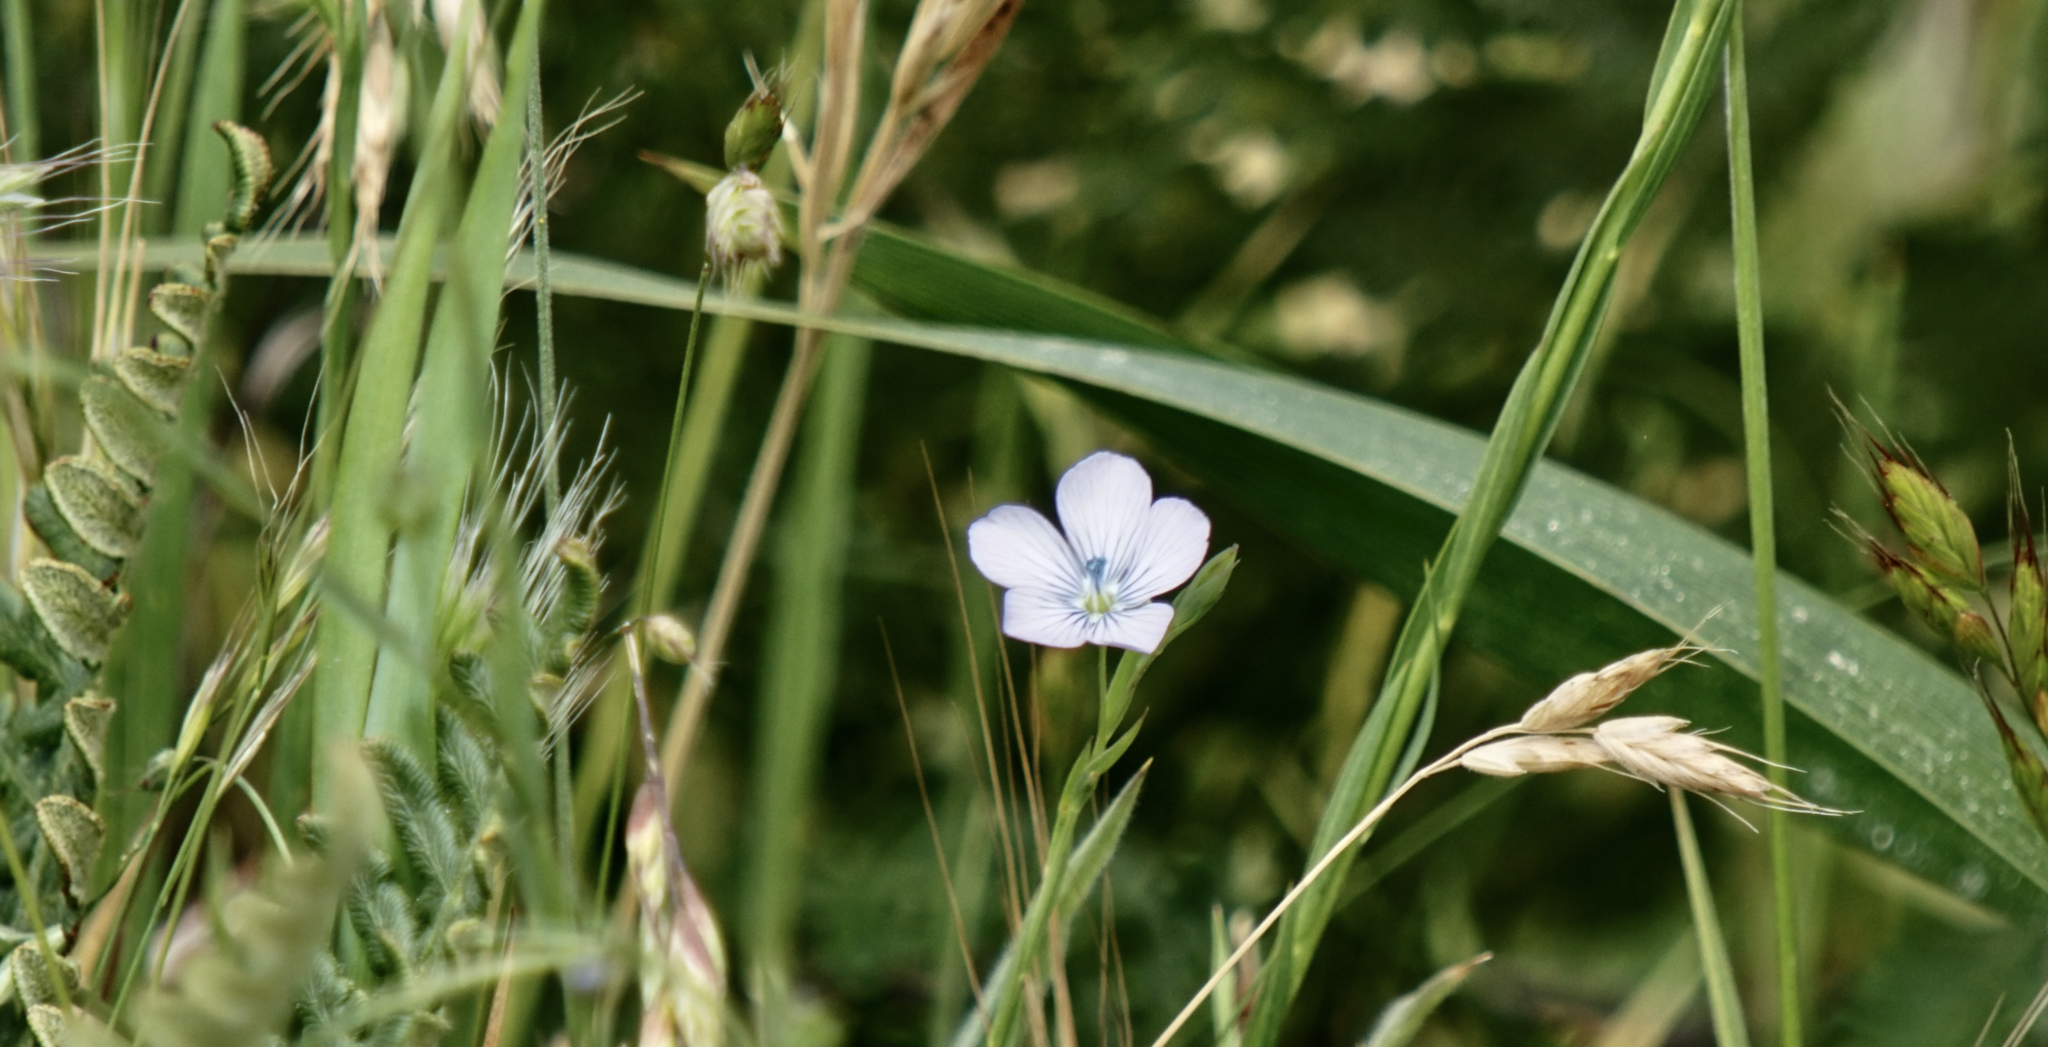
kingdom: Plantae
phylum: Tracheophyta
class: Magnoliopsida
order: Malpighiales
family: Linaceae
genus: Linum
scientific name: Linum bienne
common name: Pale flax
